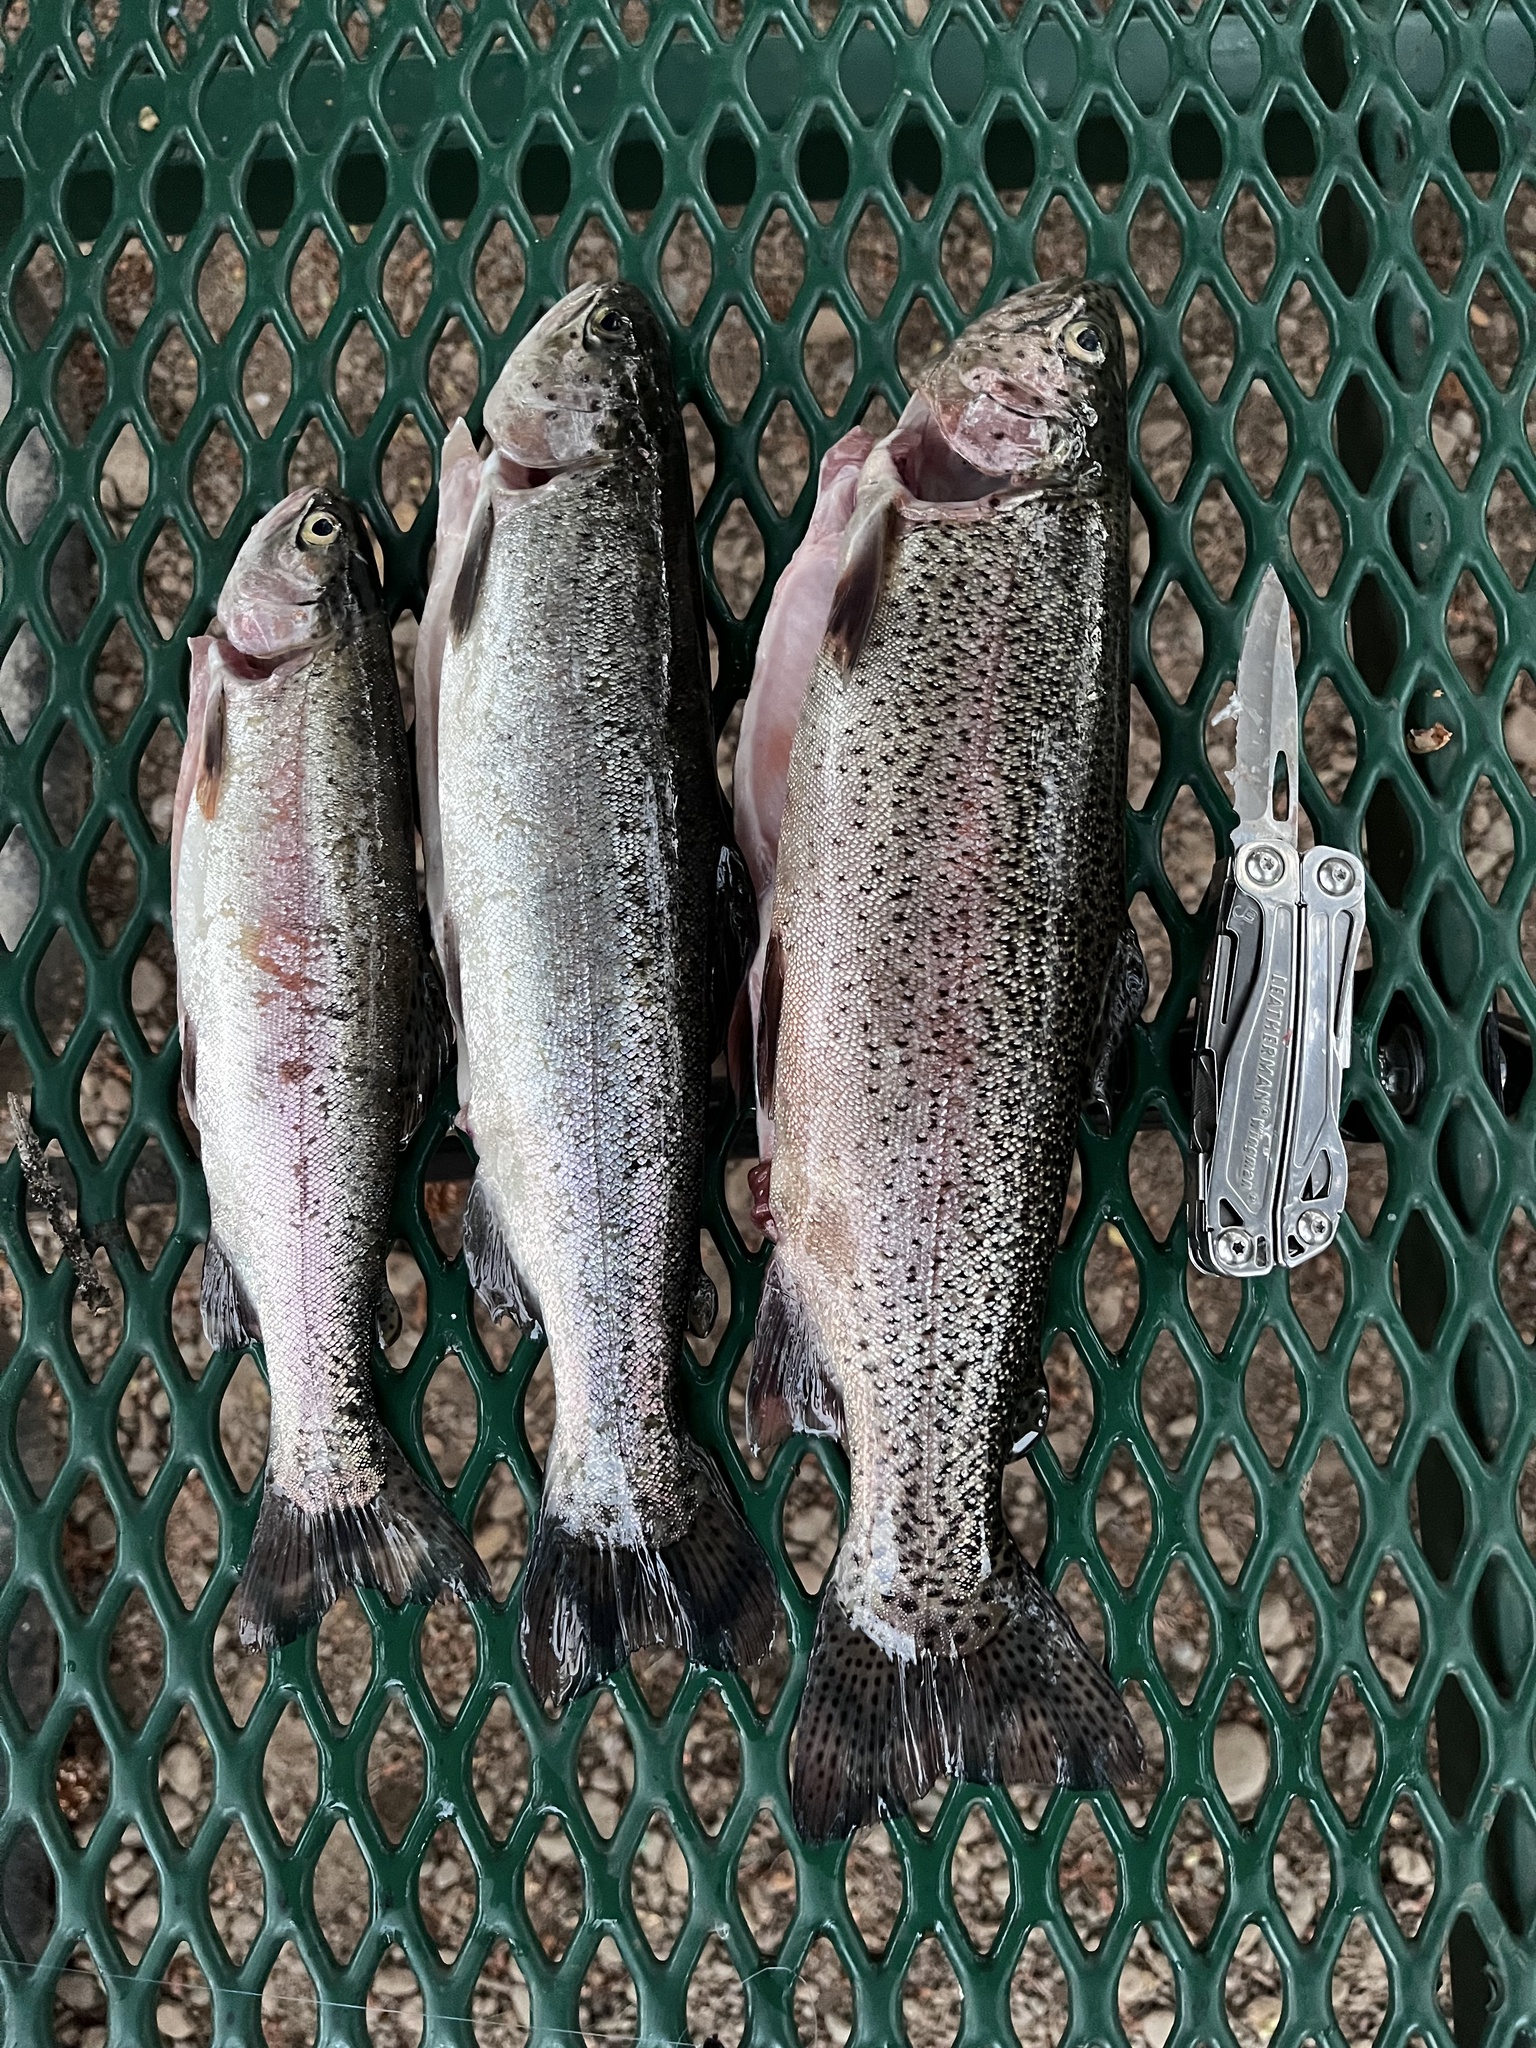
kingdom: Animalia
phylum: Chordata
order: Salmoniformes
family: Salmonidae
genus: Oncorhynchus
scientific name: Oncorhynchus mykiss
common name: Rainbow trout
